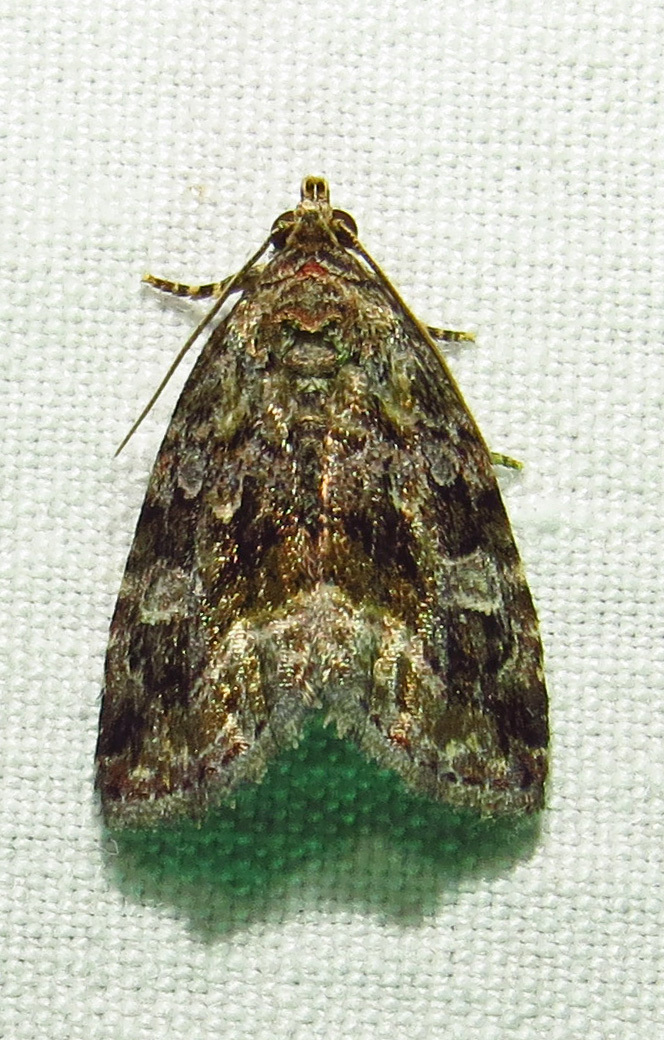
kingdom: Animalia
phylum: Arthropoda
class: Insecta
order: Lepidoptera
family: Noctuidae
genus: Protodeltote
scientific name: Protodeltote muscosula
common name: Large mossy glyph
